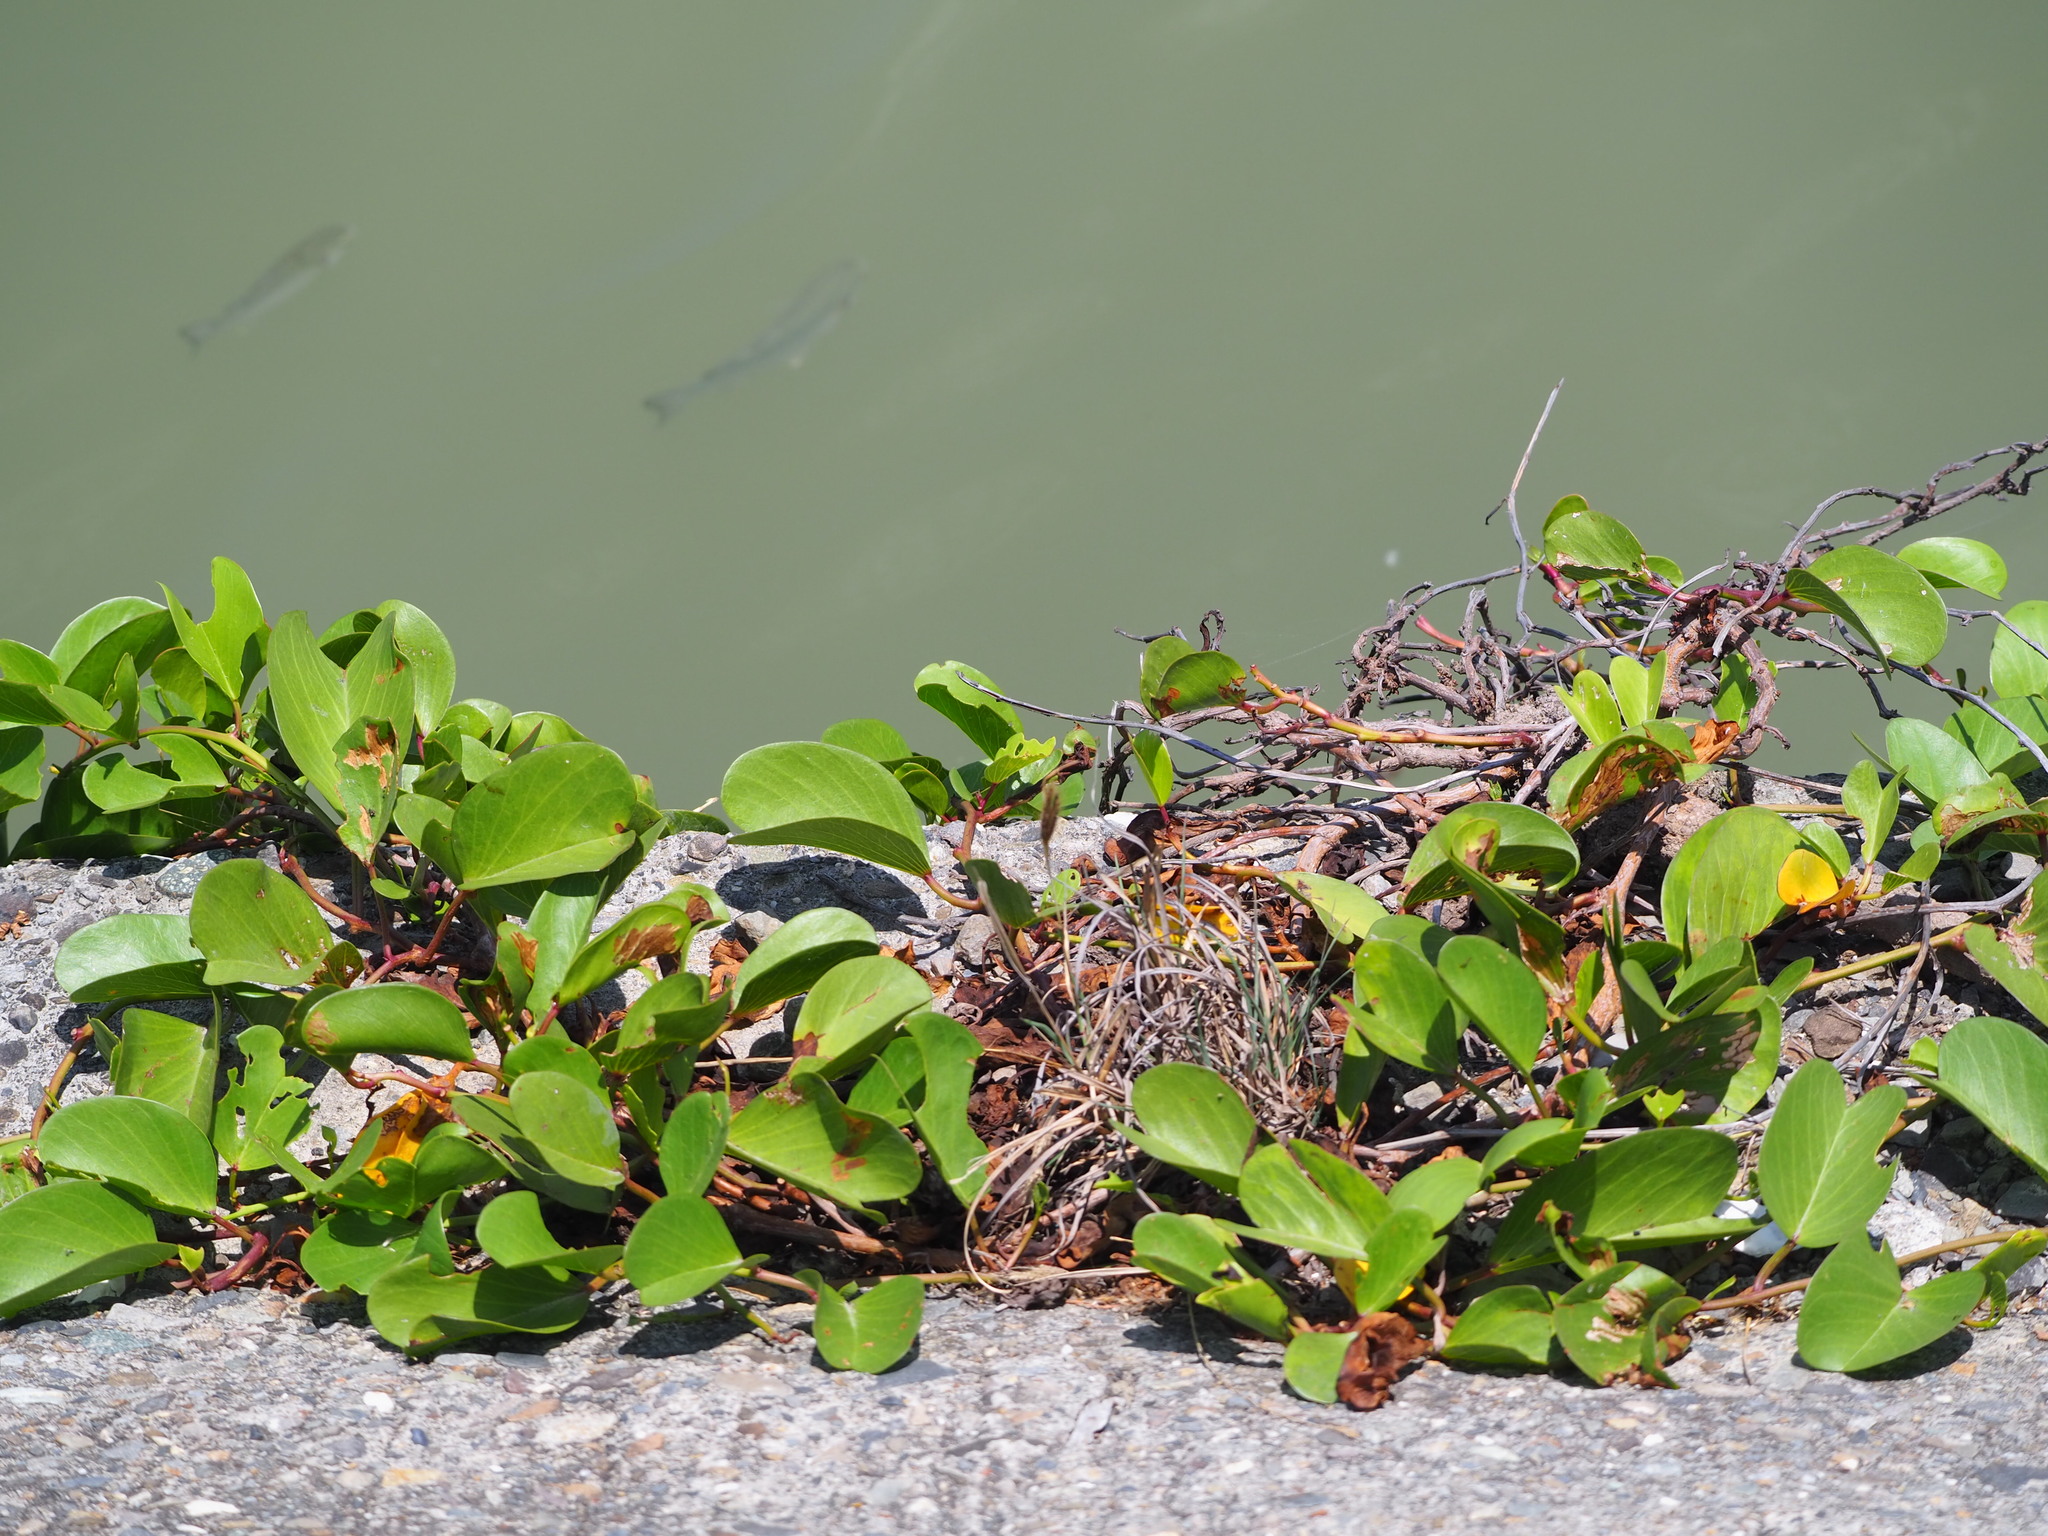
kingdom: Plantae
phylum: Tracheophyta
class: Magnoliopsida
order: Solanales
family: Convolvulaceae
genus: Ipomoea
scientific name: Ipomoea pes-caprae
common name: Beach morning glory
